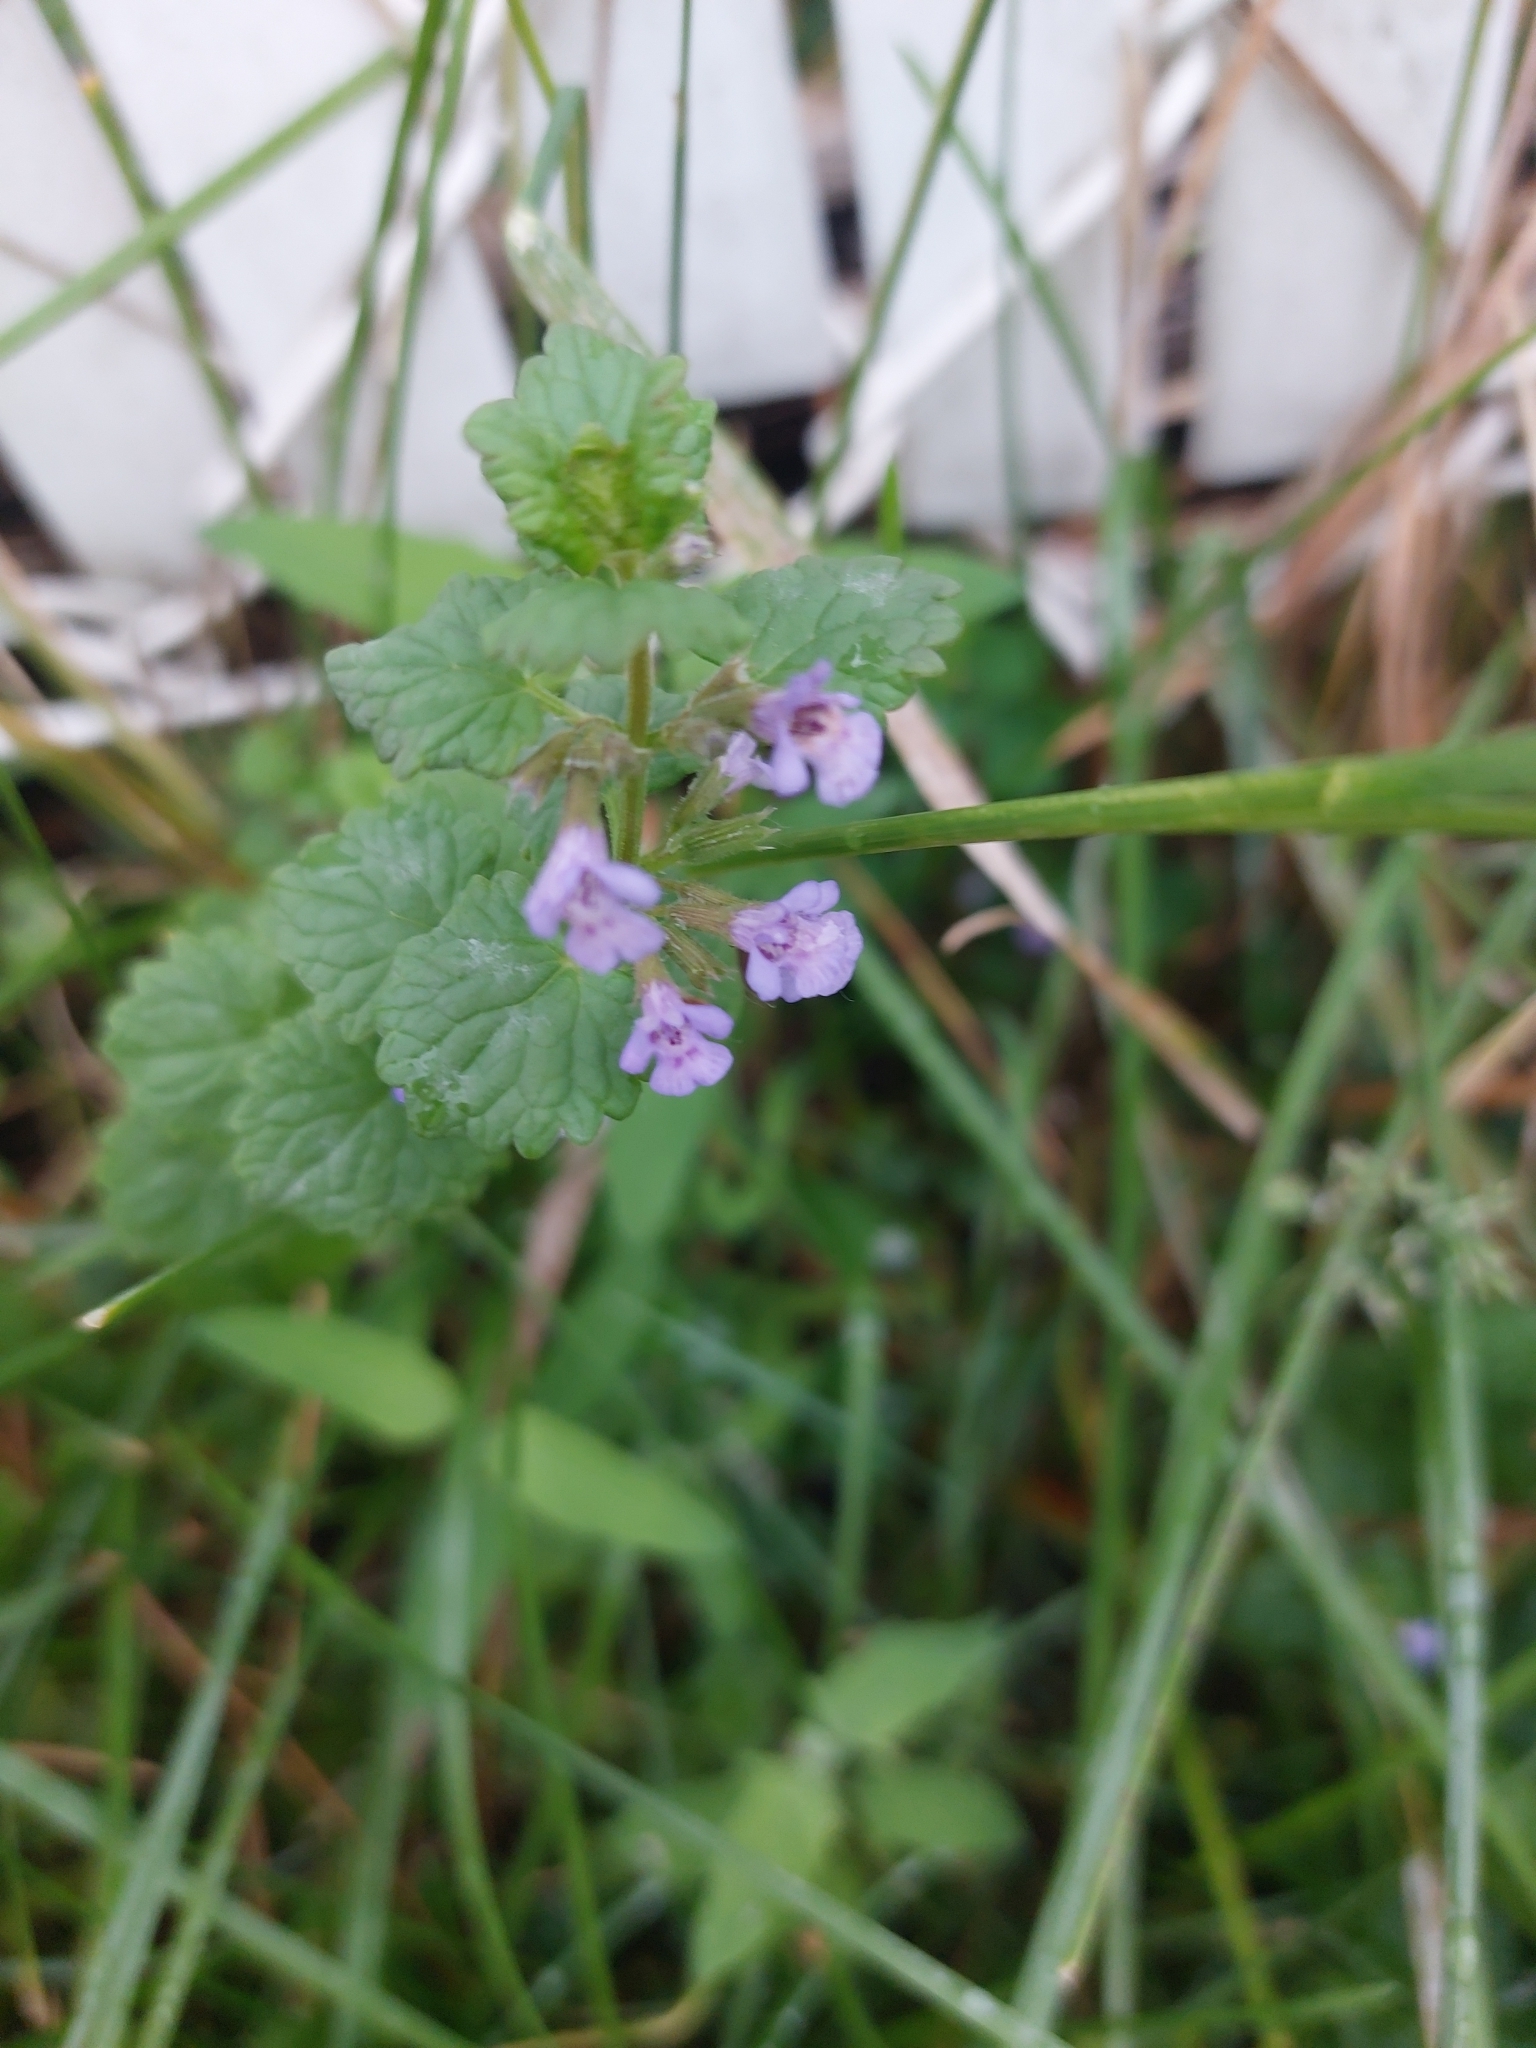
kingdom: Plantae
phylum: Tracheophyta
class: Magnoliopsida
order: Lamiales
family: Lamiaceae
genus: Glechoma
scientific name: Glechoma hederacea
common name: Ground ivy
